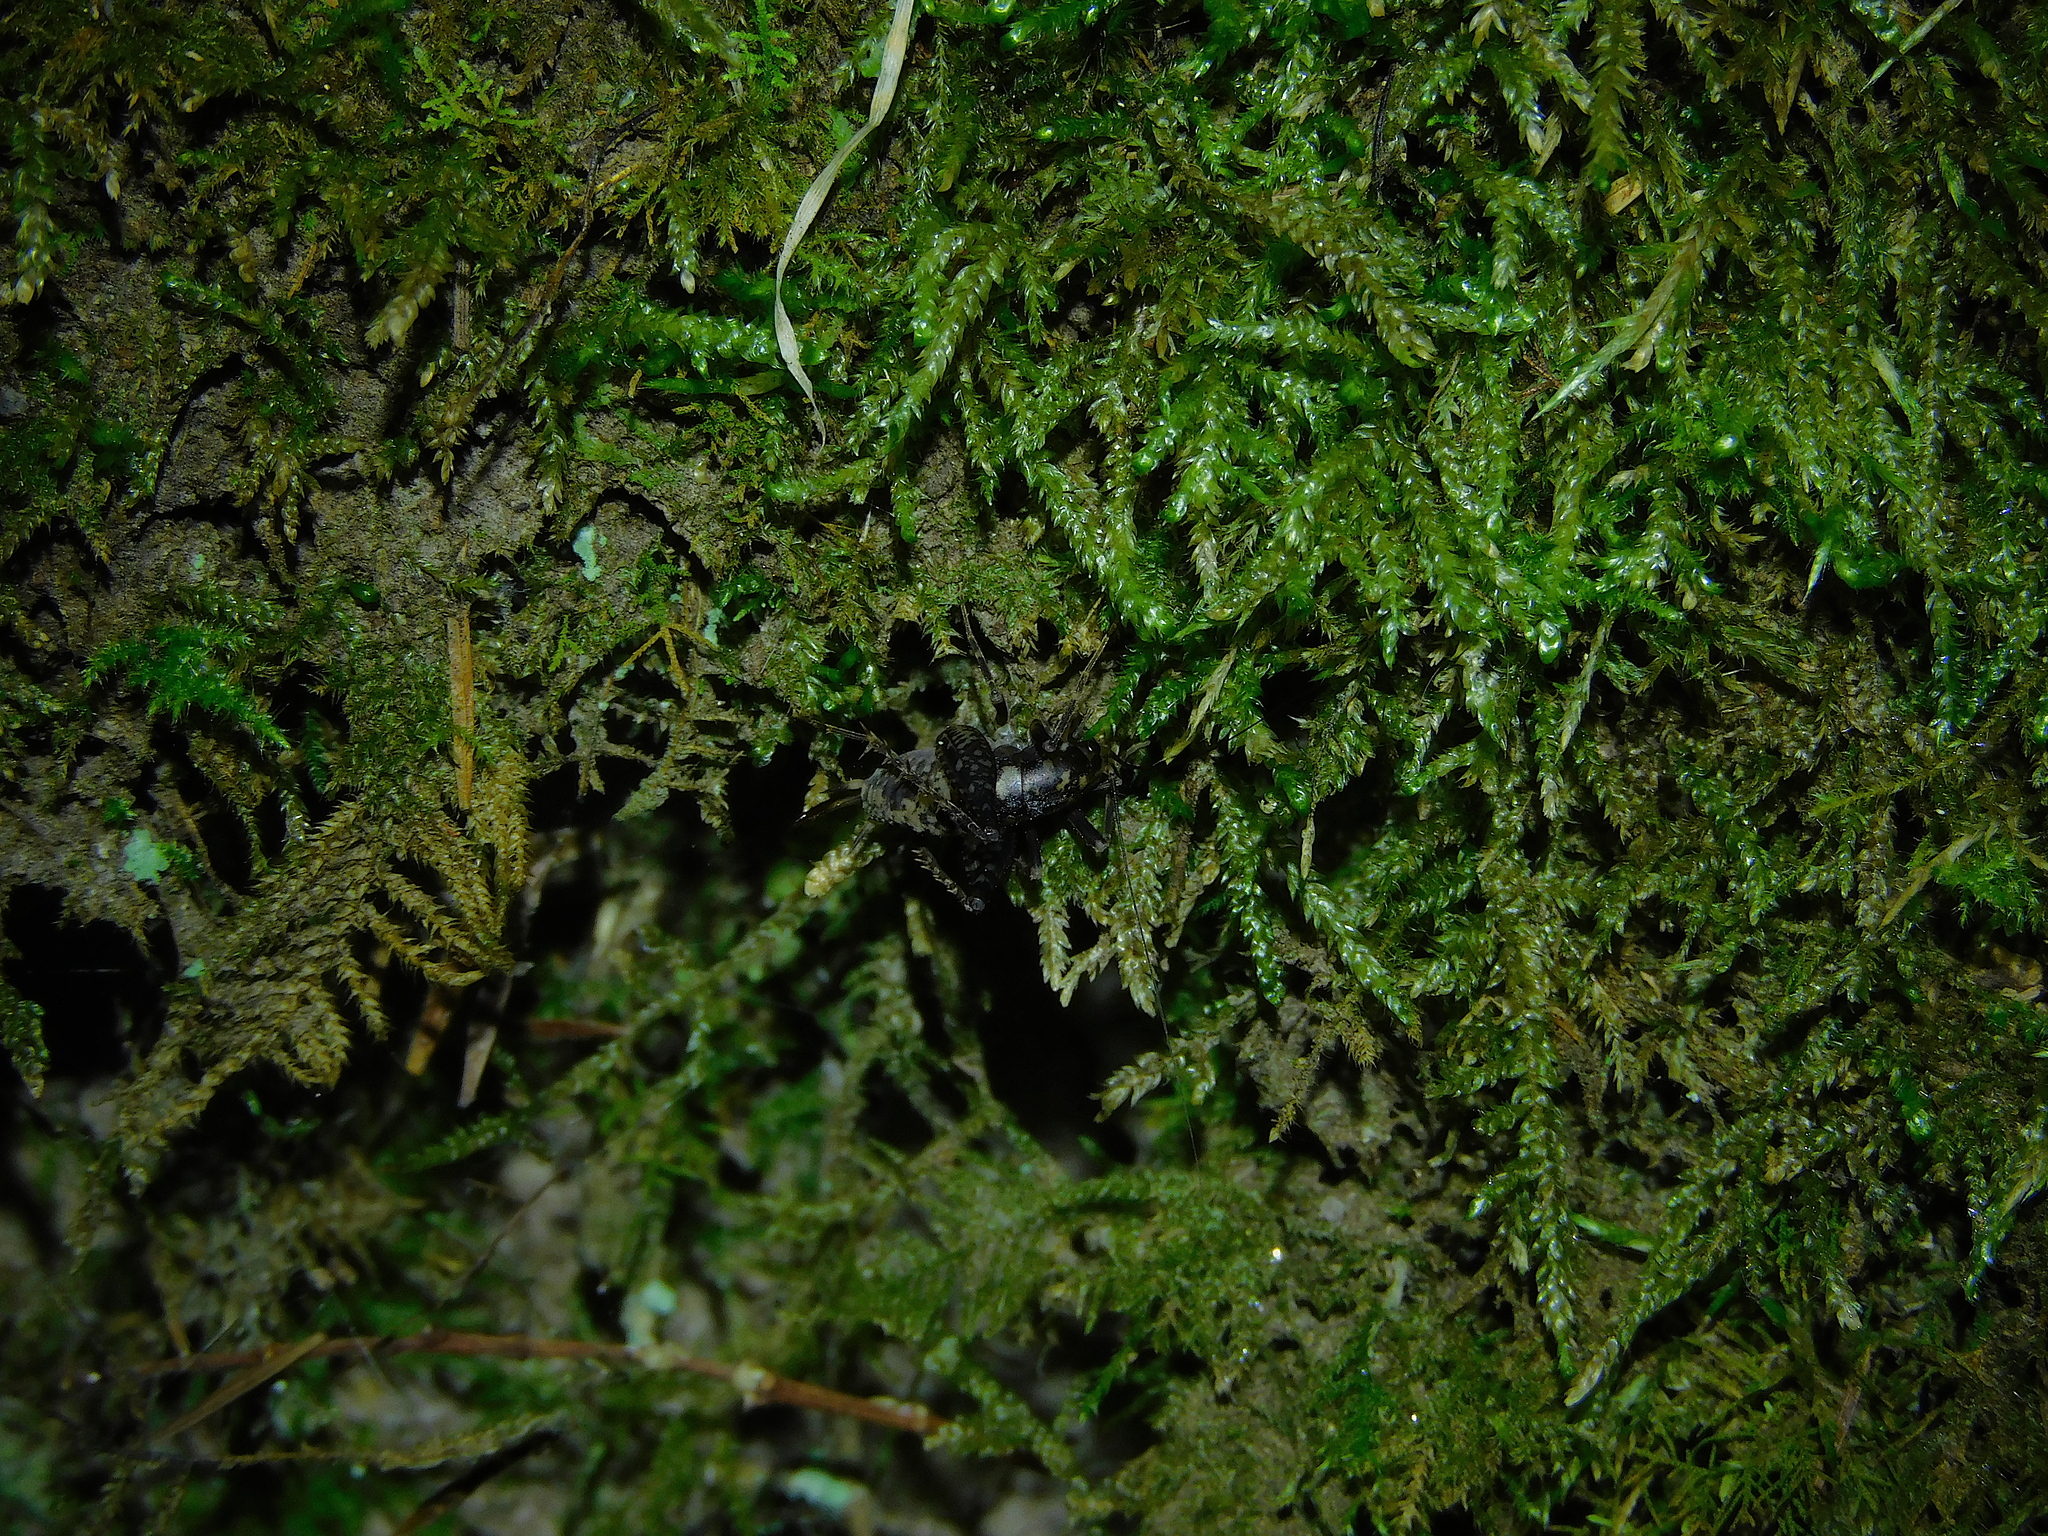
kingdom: Animalia
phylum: Arthropoda
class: Insecta
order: Orthoptera
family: Rhaphidophoridae
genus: Parvotettix
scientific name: Parvotettix domesticus
